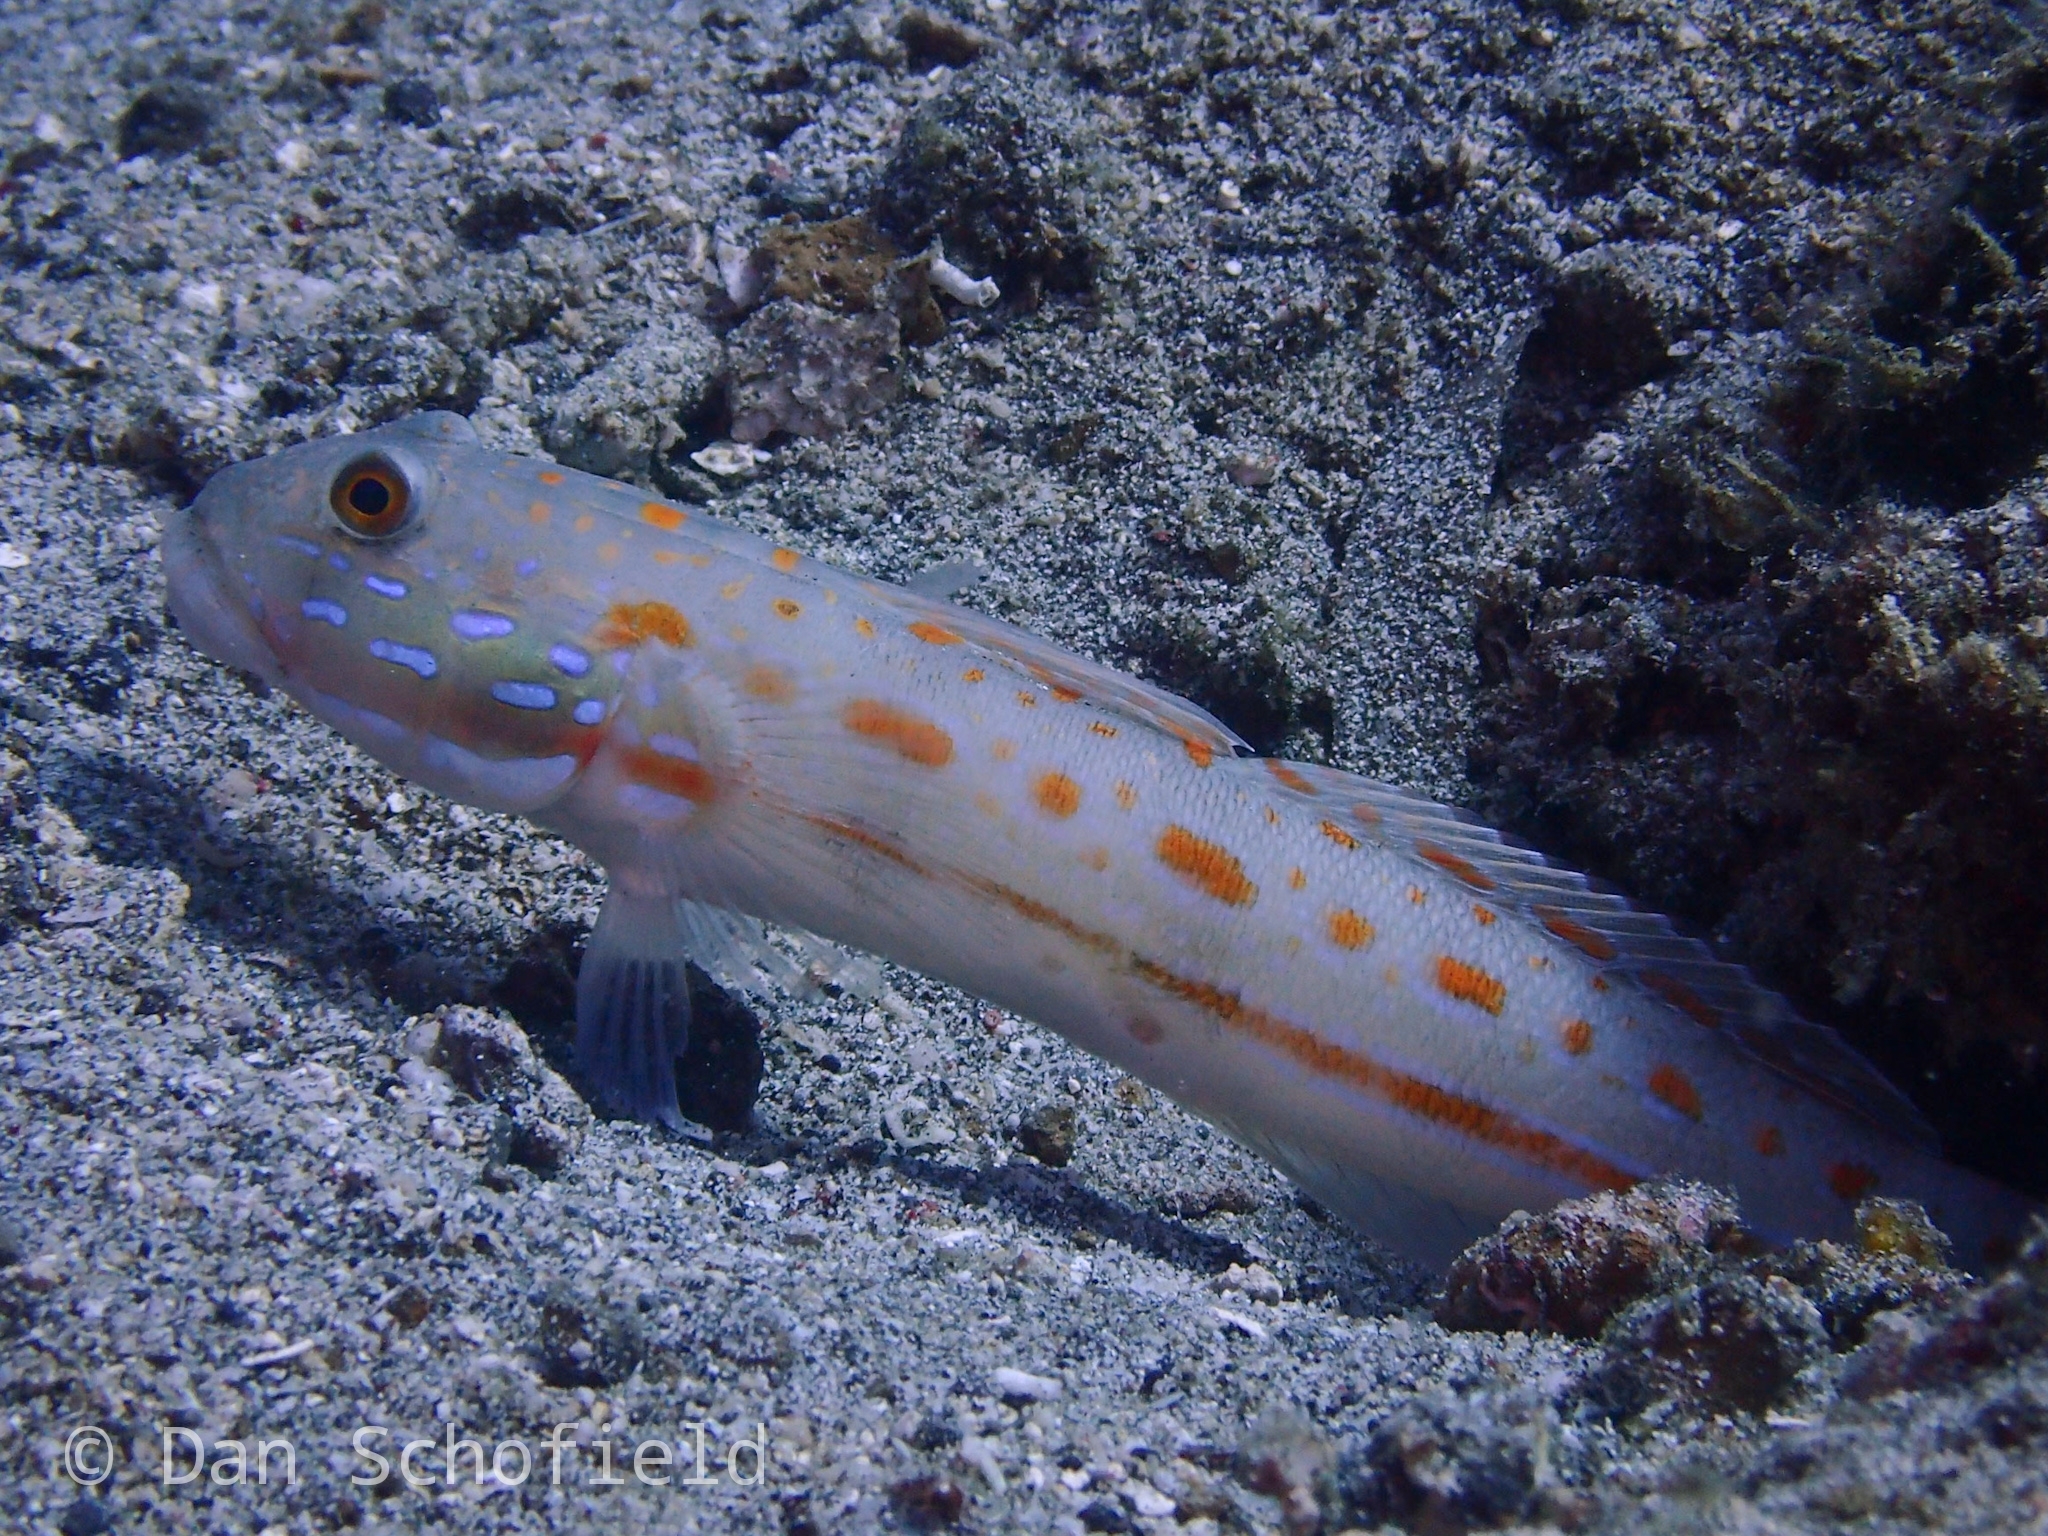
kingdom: Animalia
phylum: Chordata
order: Perciformes
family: Gobiidae
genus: Valenciennea
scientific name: Valenciennea puellaris
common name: Orange-dashed goby
